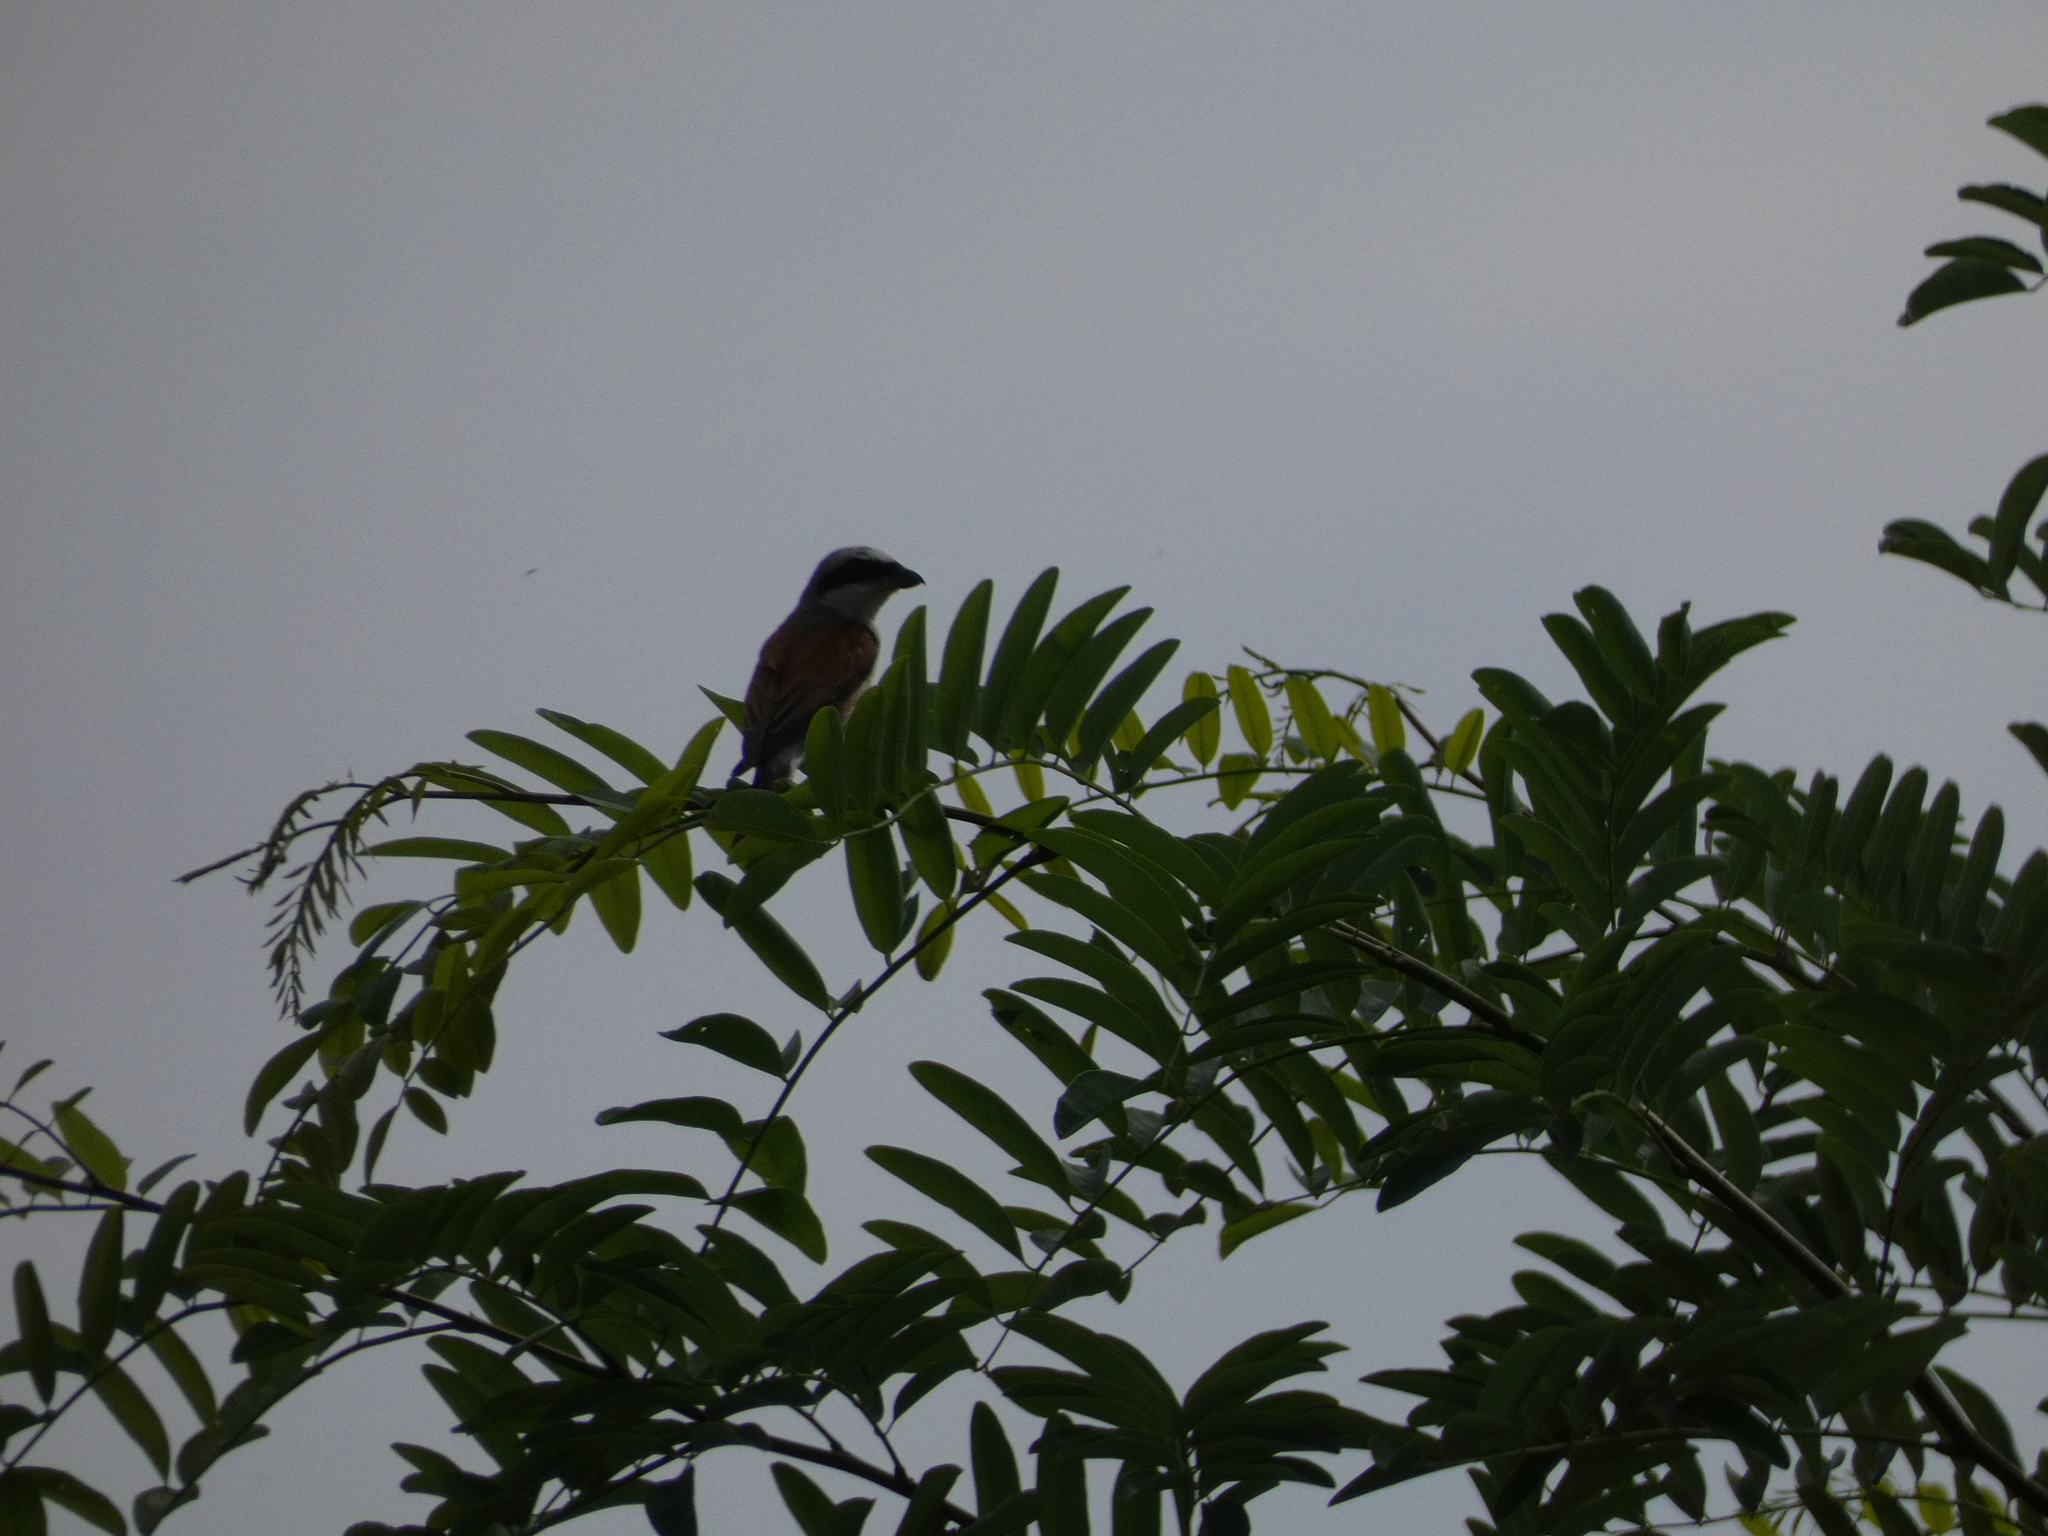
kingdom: Animalia
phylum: Chordata
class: Aves
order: Passeriformes
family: Laniidae
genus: Lanius
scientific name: Lanius collurio
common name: Red-backed shrike
